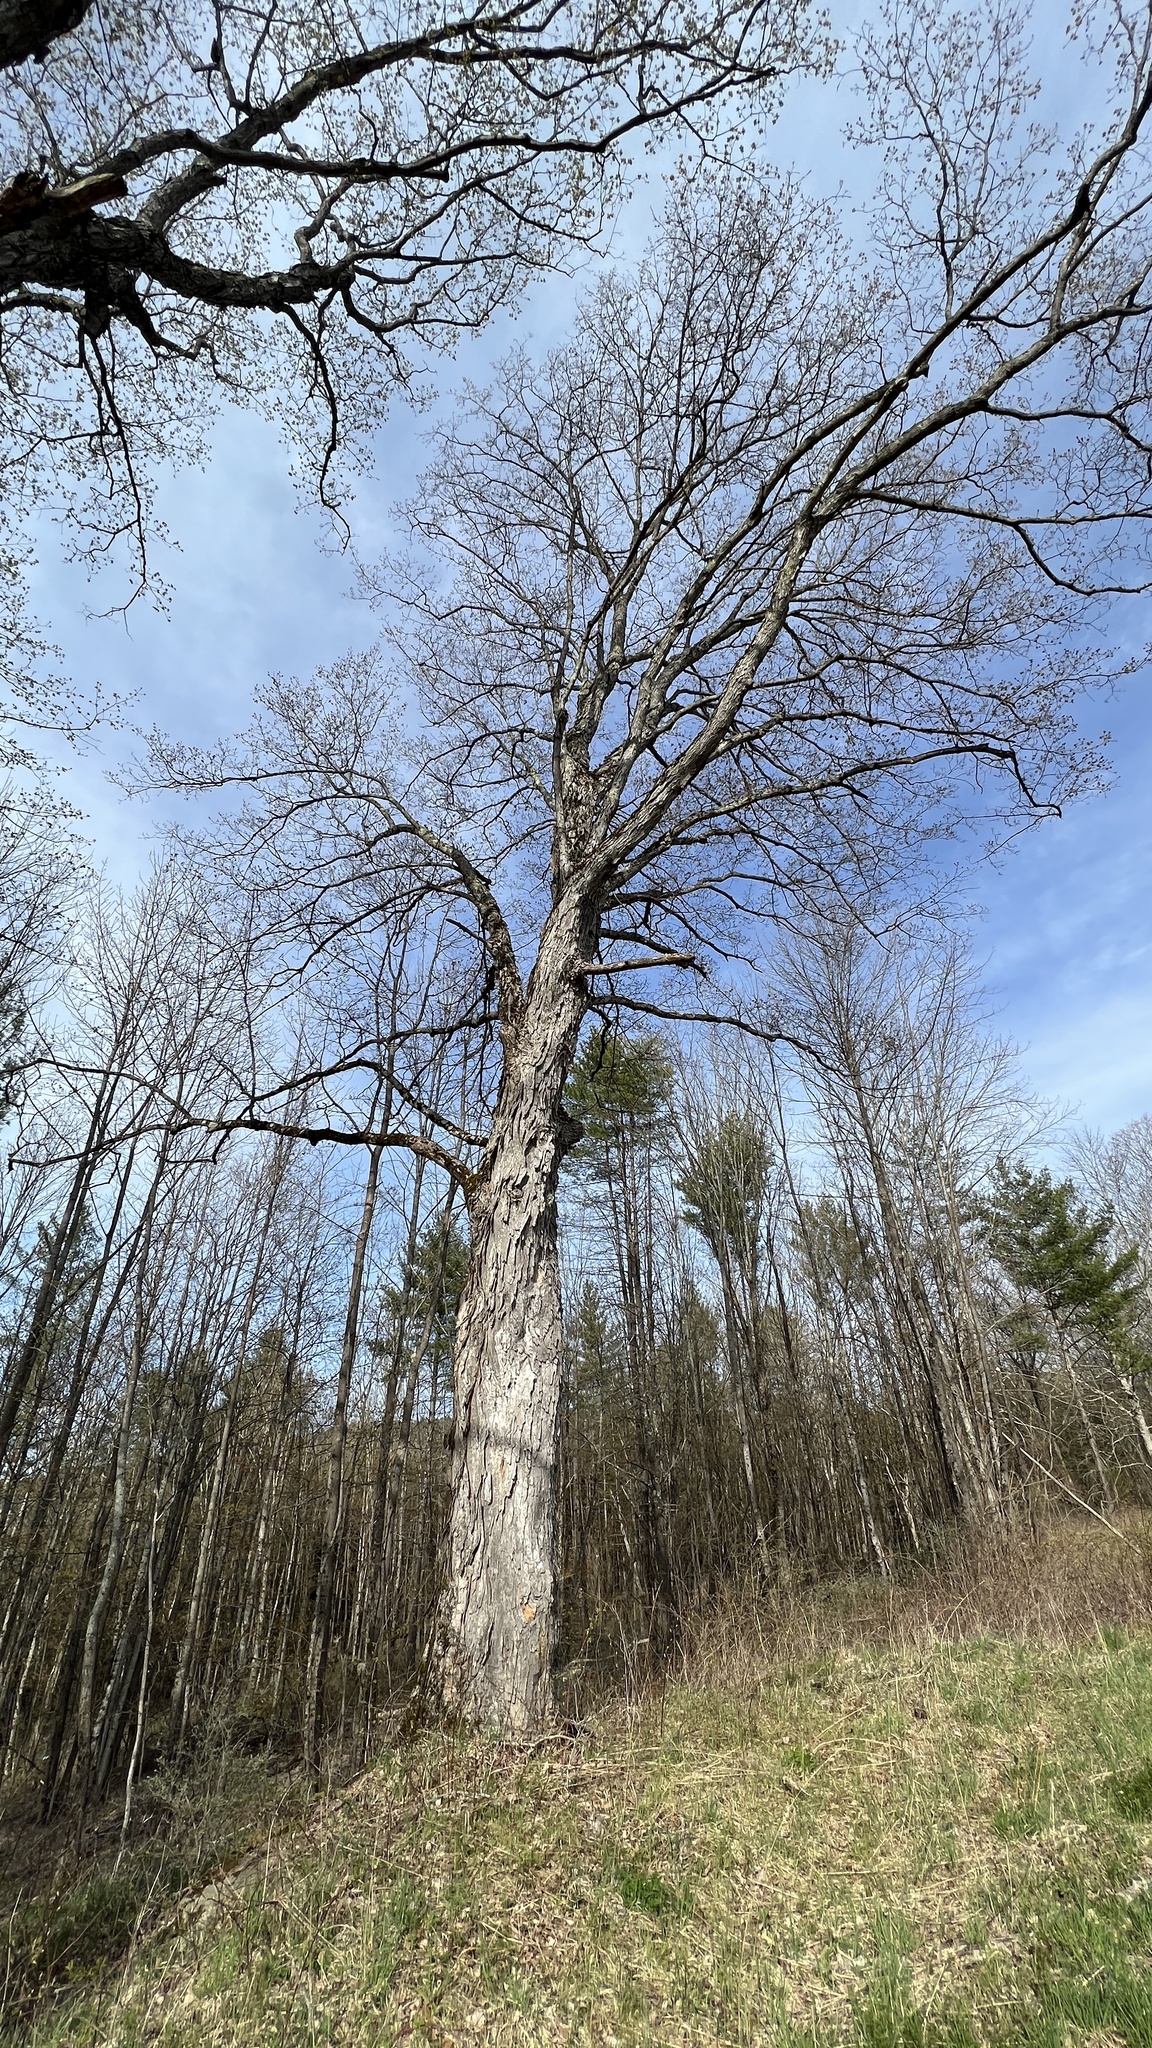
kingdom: Plantae
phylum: Tracheophyta
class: Magnoliopsida
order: Sapindales
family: Sapindaceae
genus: Acer
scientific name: Acer saccharum
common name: Sugar maple
